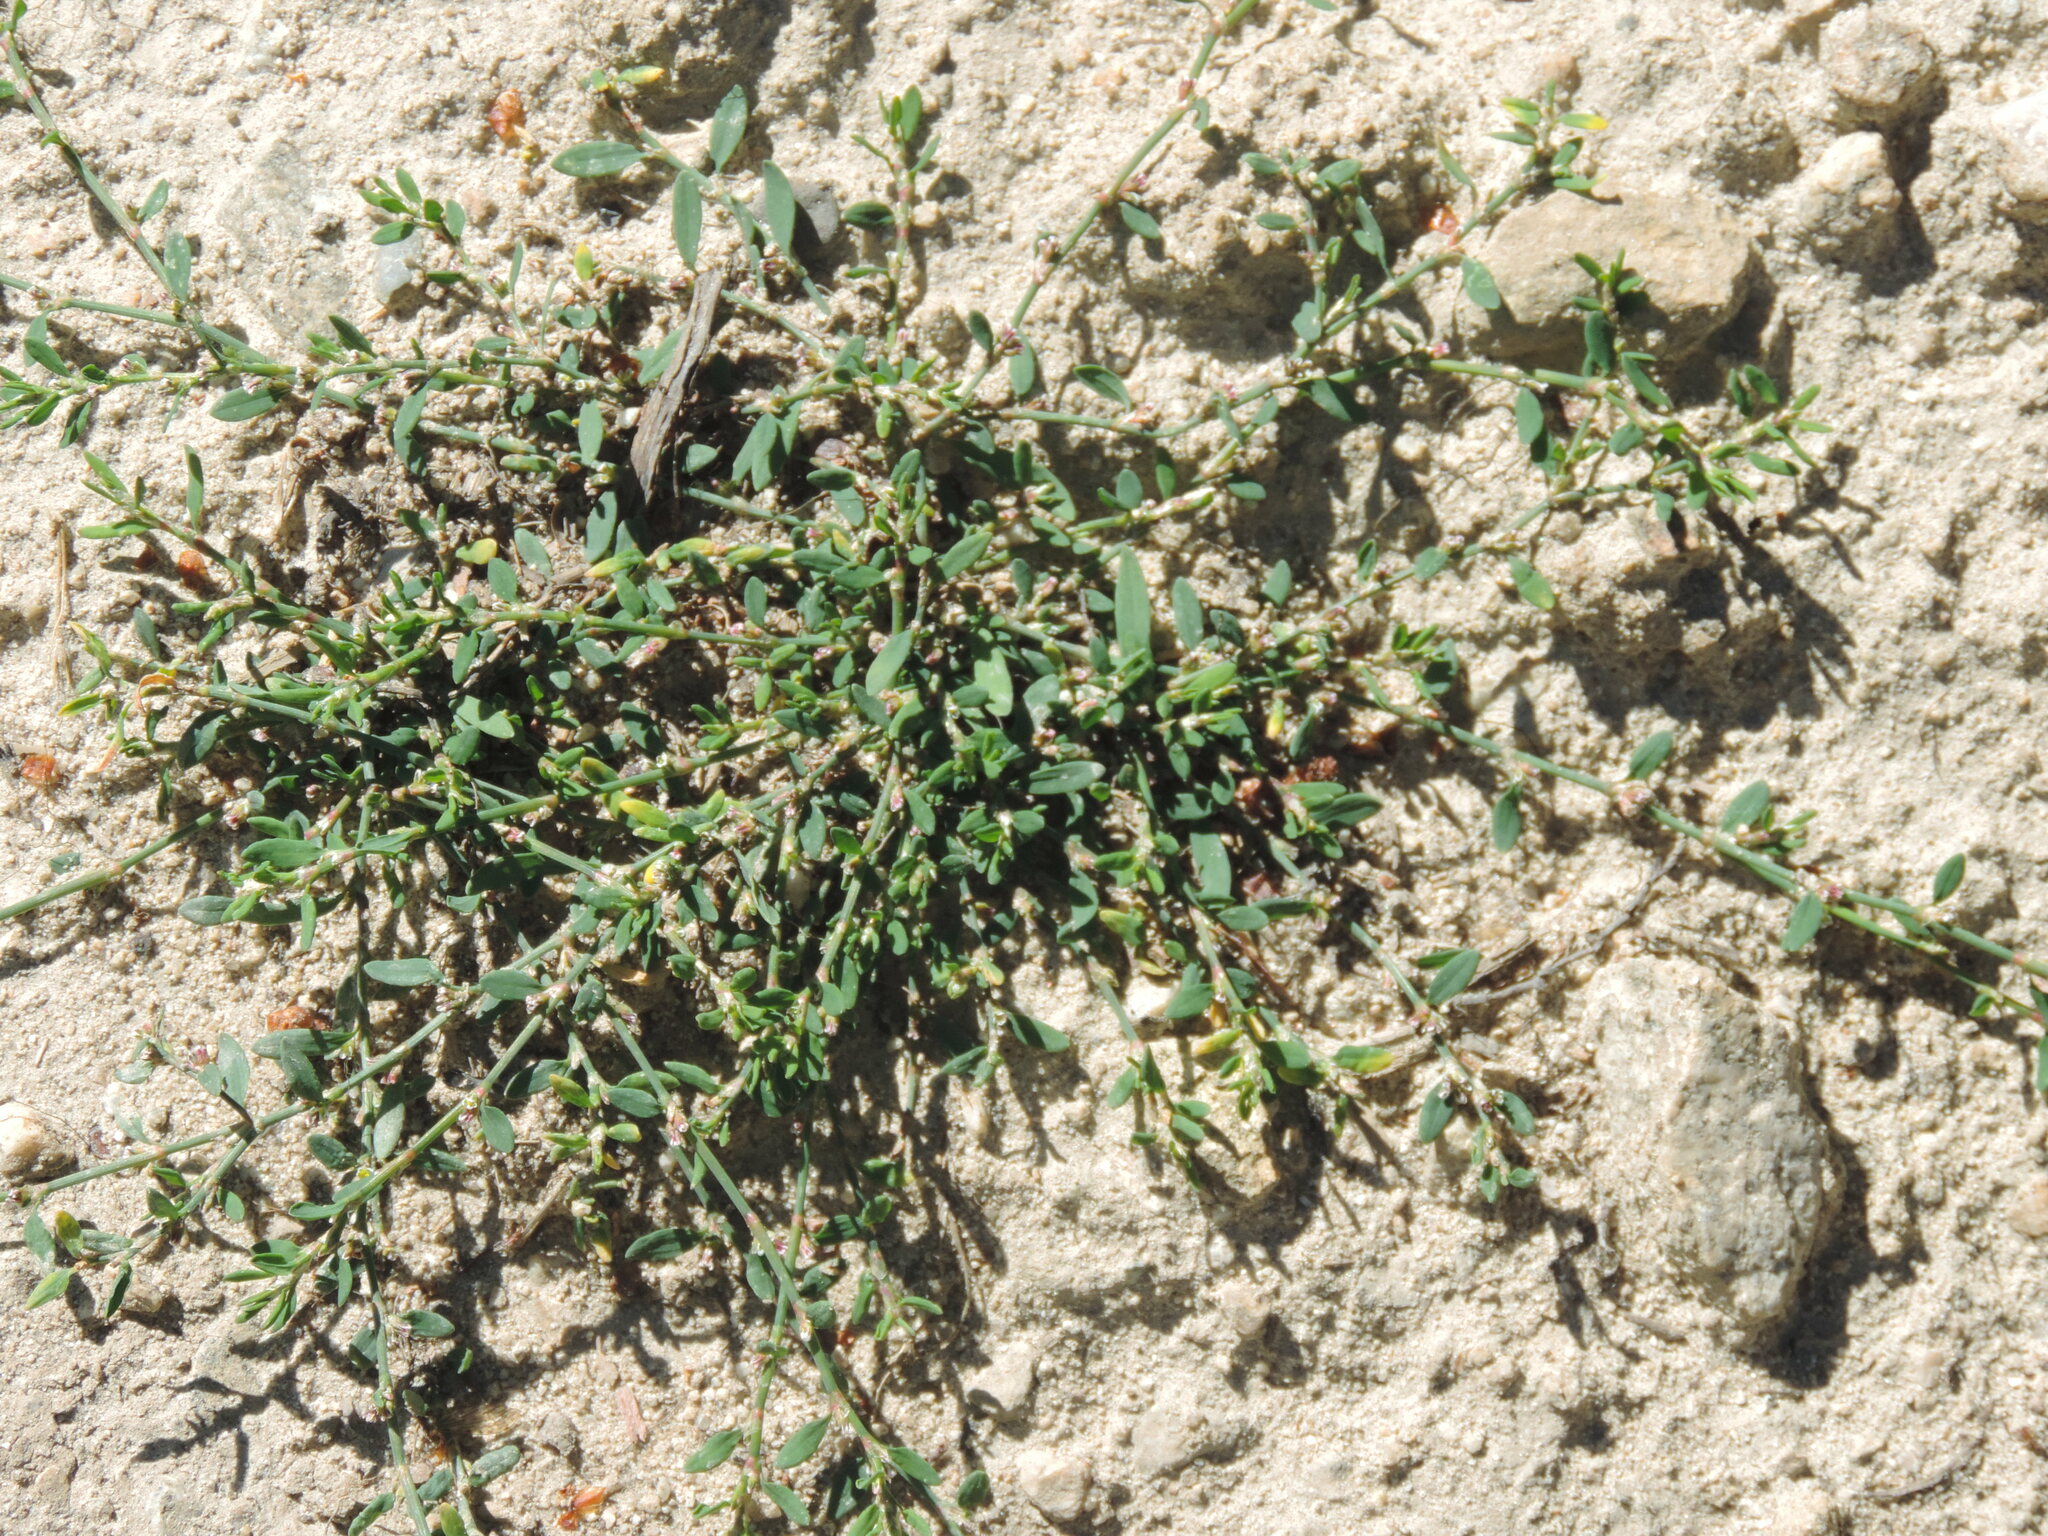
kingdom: Plantae
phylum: Tracheophyta
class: Magnoliopsida
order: Caryophyllales
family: Polygonaceae
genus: Polygonum
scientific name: Polygonum aviculare
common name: Prostrate knotweed
